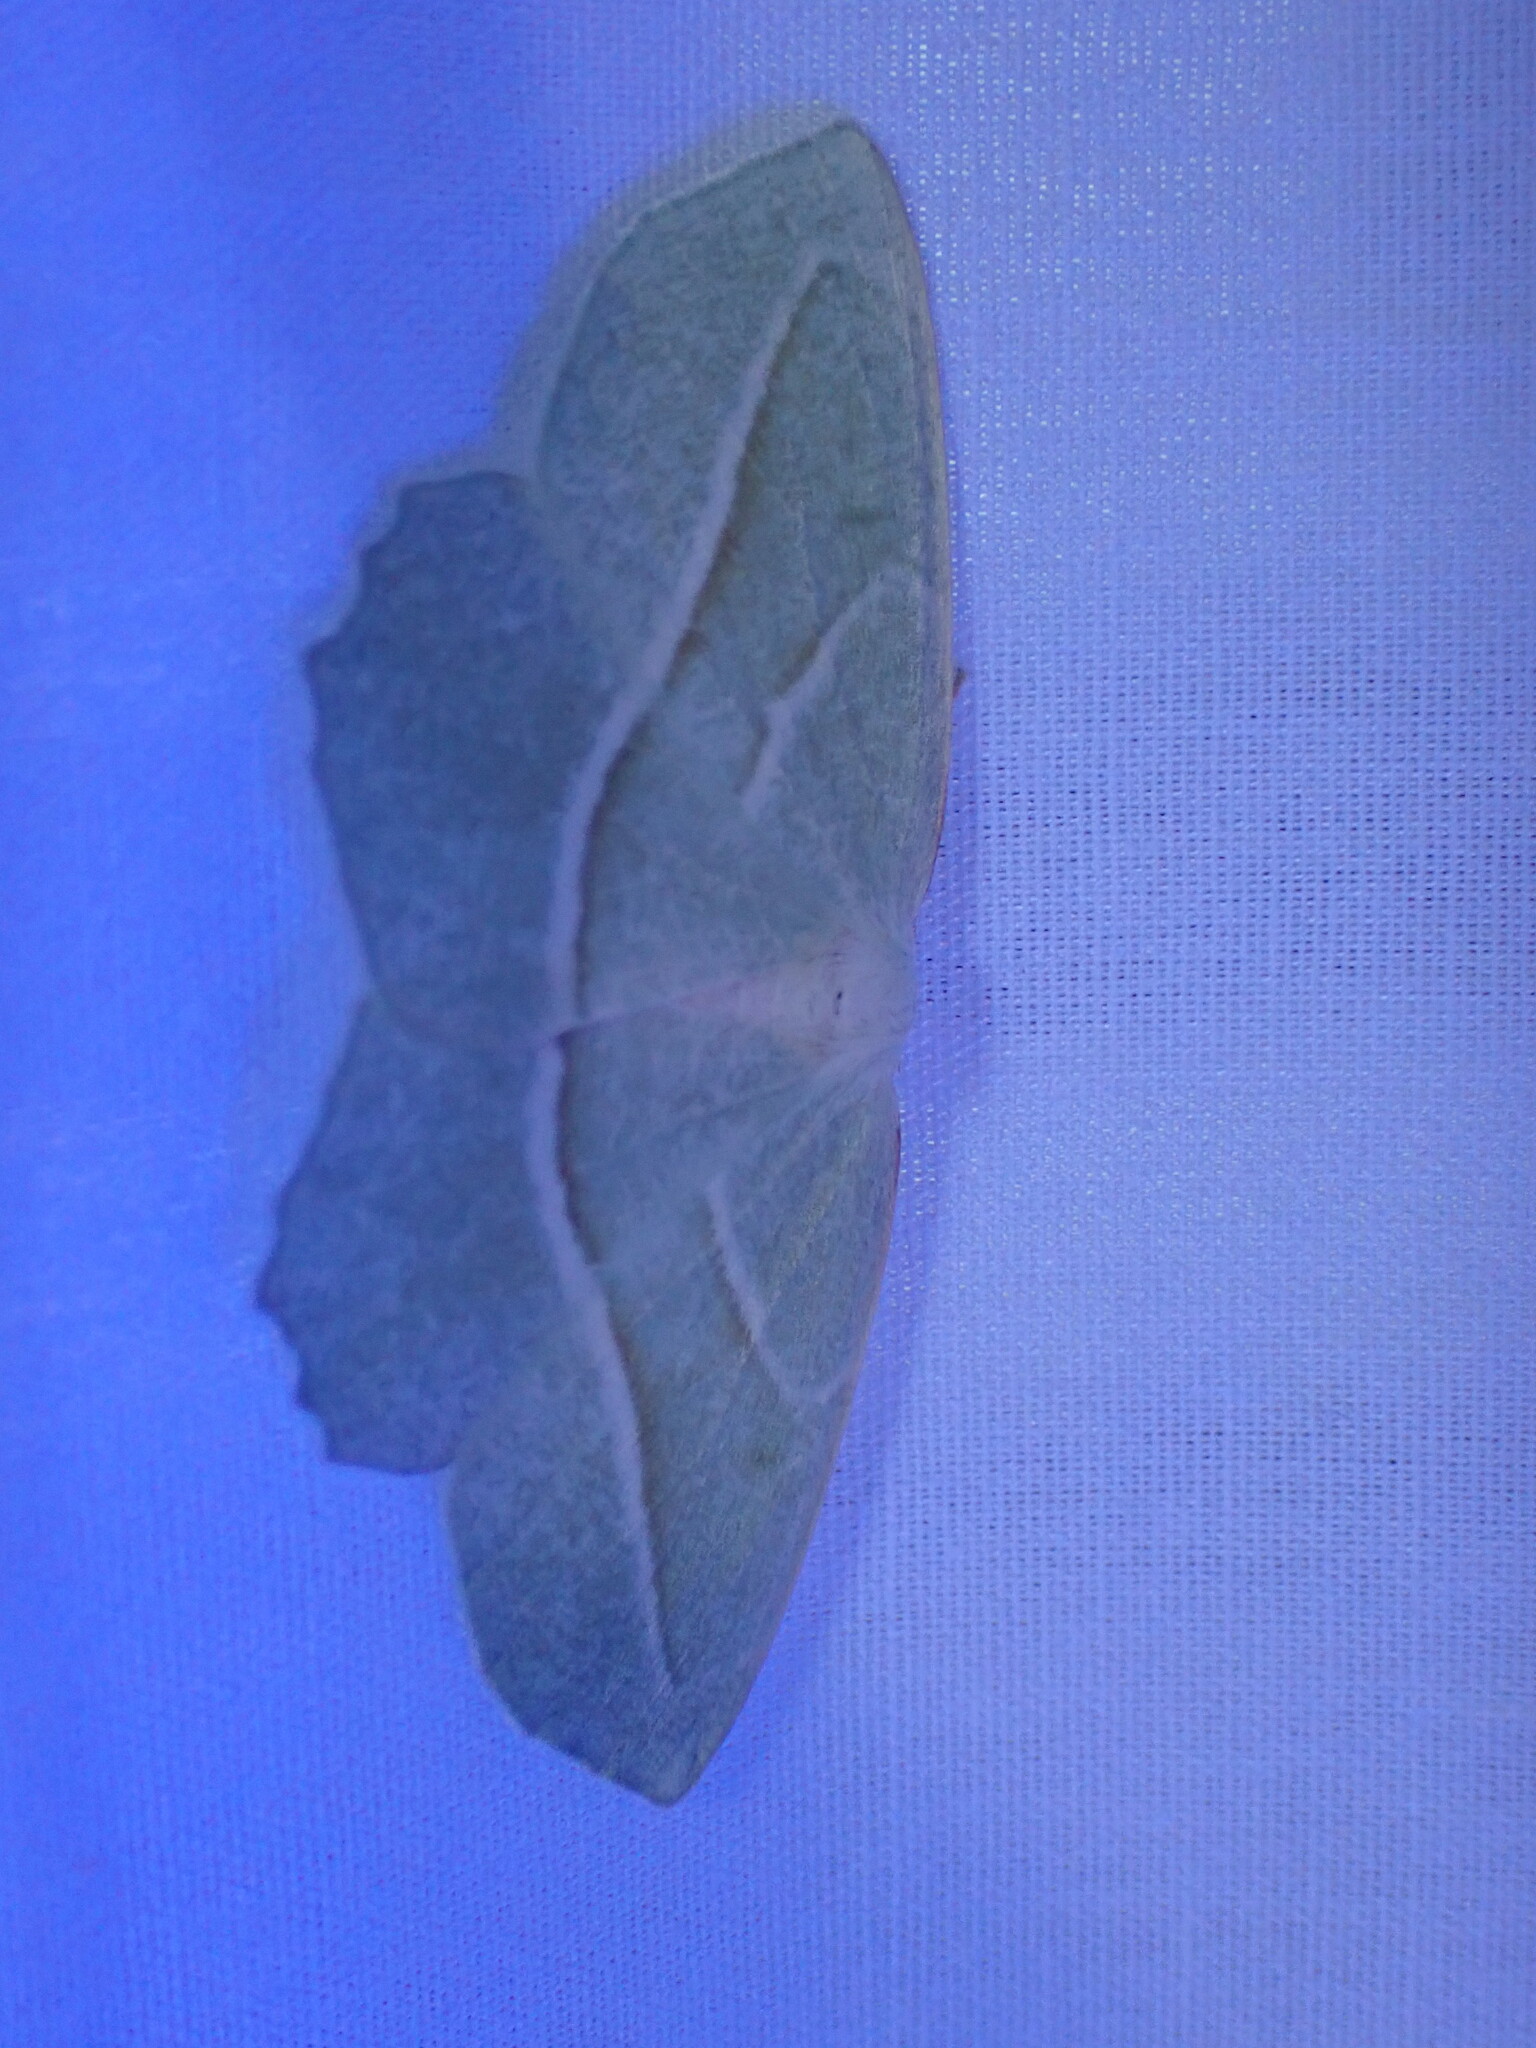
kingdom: Animalia
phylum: Arthropoda
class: Insecta
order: Lepidoptera
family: Geometridae
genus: Campaea
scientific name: Campaea perlata
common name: Fringed looper
